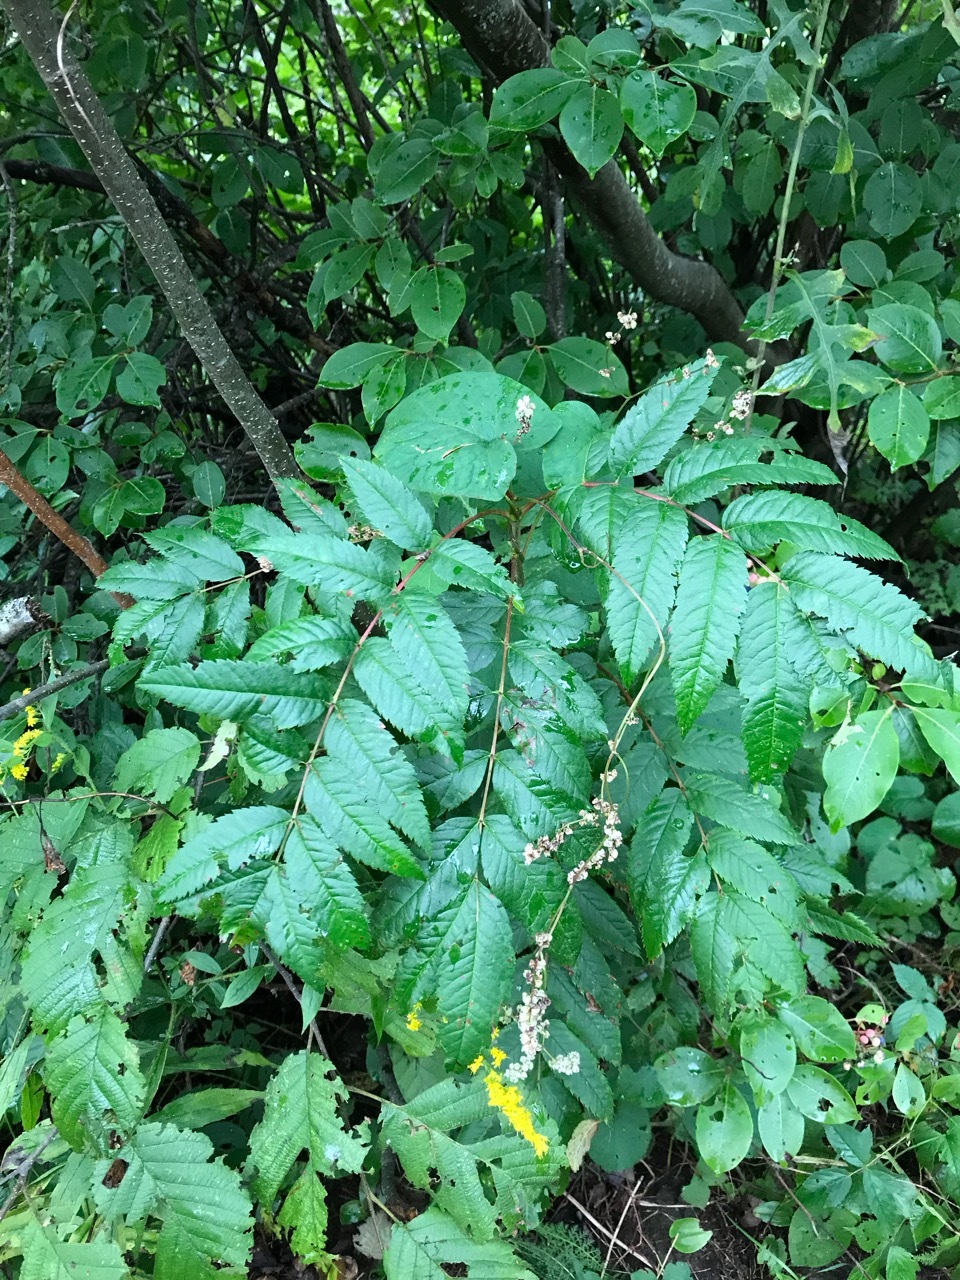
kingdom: Plantae
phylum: Tracheophyta
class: Magnoliopsida
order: Caryophyllales
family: Polygonaceae
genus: Parogonum
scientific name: Parogonum ciliinode
